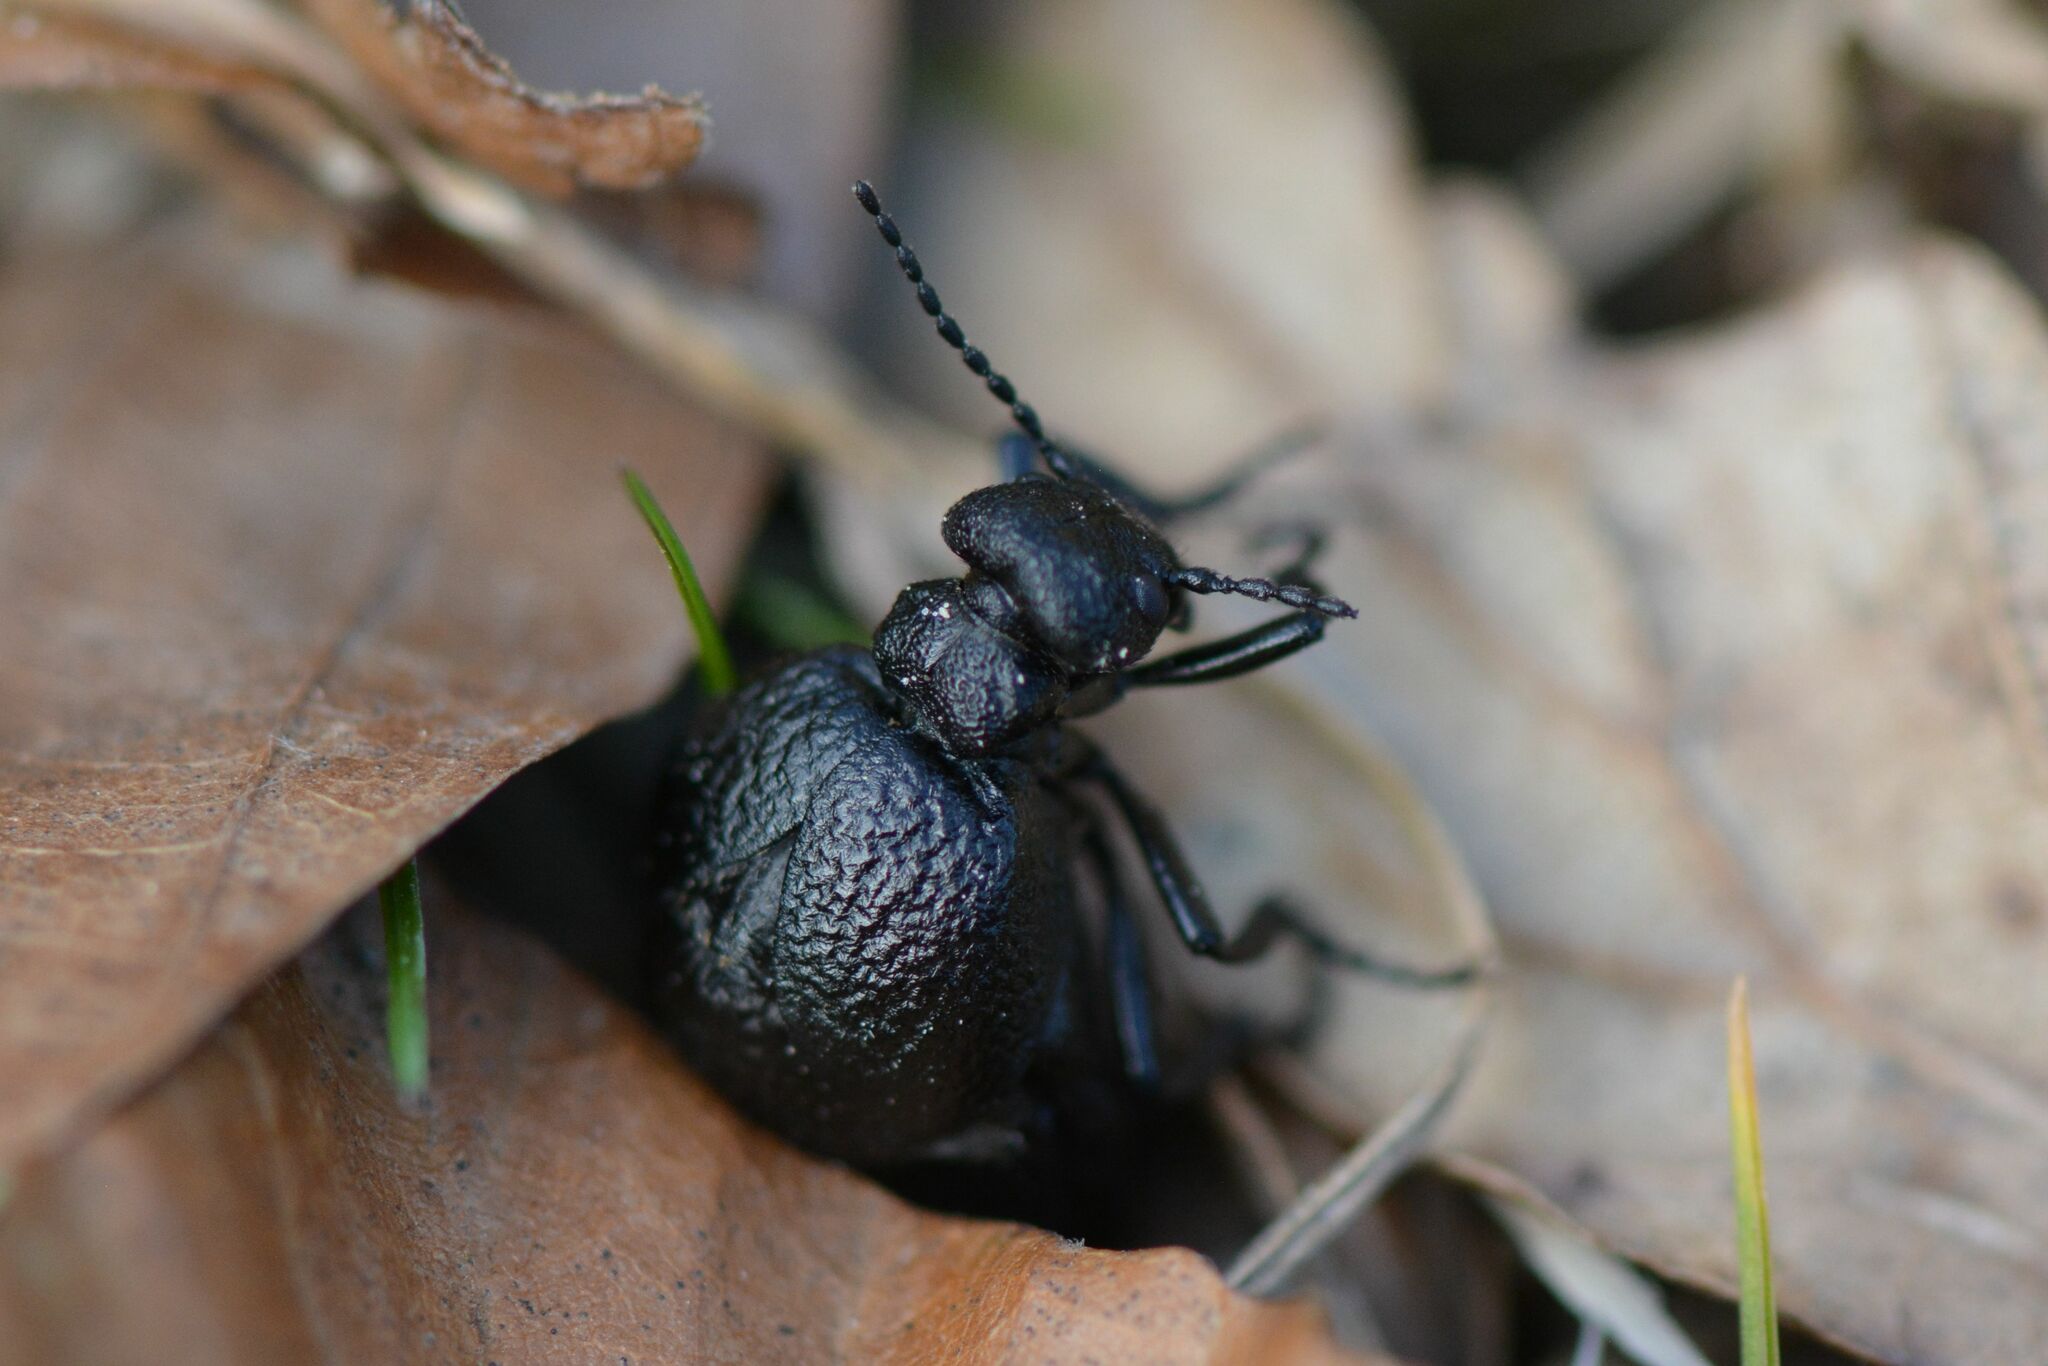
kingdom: Animalia
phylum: Arthropoda
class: Insecta
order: Coleoptera
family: Meloidae
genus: Meloe
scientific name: Meloe rugosus
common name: Rugged oil-beetle
